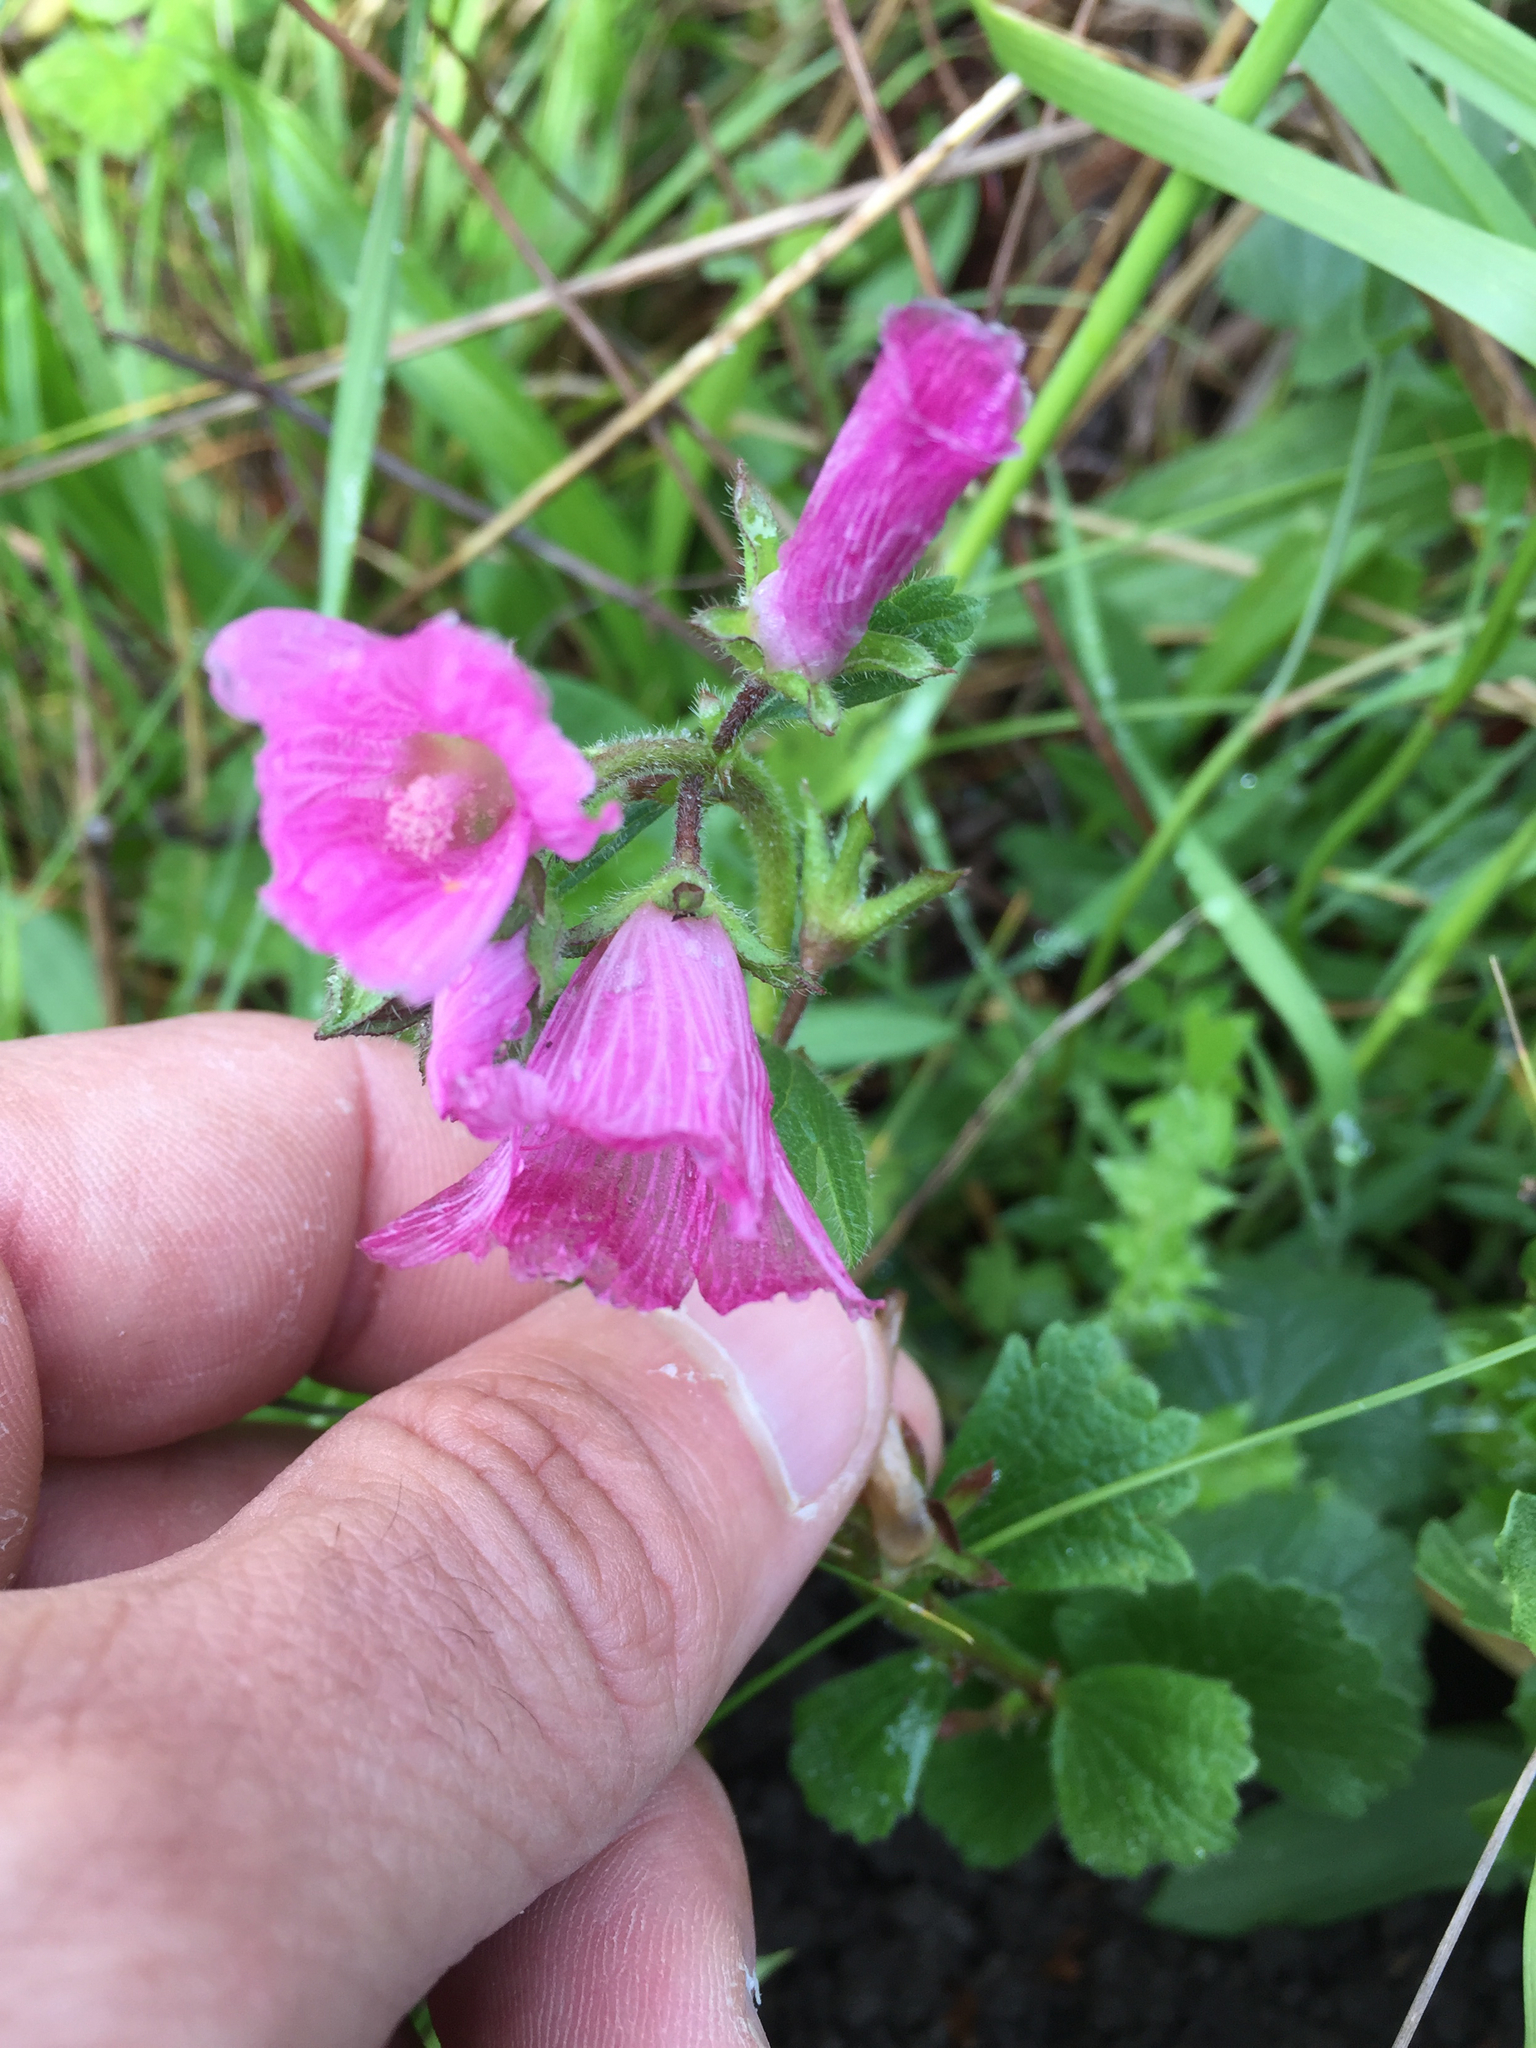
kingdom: Plantae
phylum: Tracheophyta
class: Magnoliopsida
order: Malvales
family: Malvaceae
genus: Sidalcea
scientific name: Sidalcea malviflora
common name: Greek mallow
